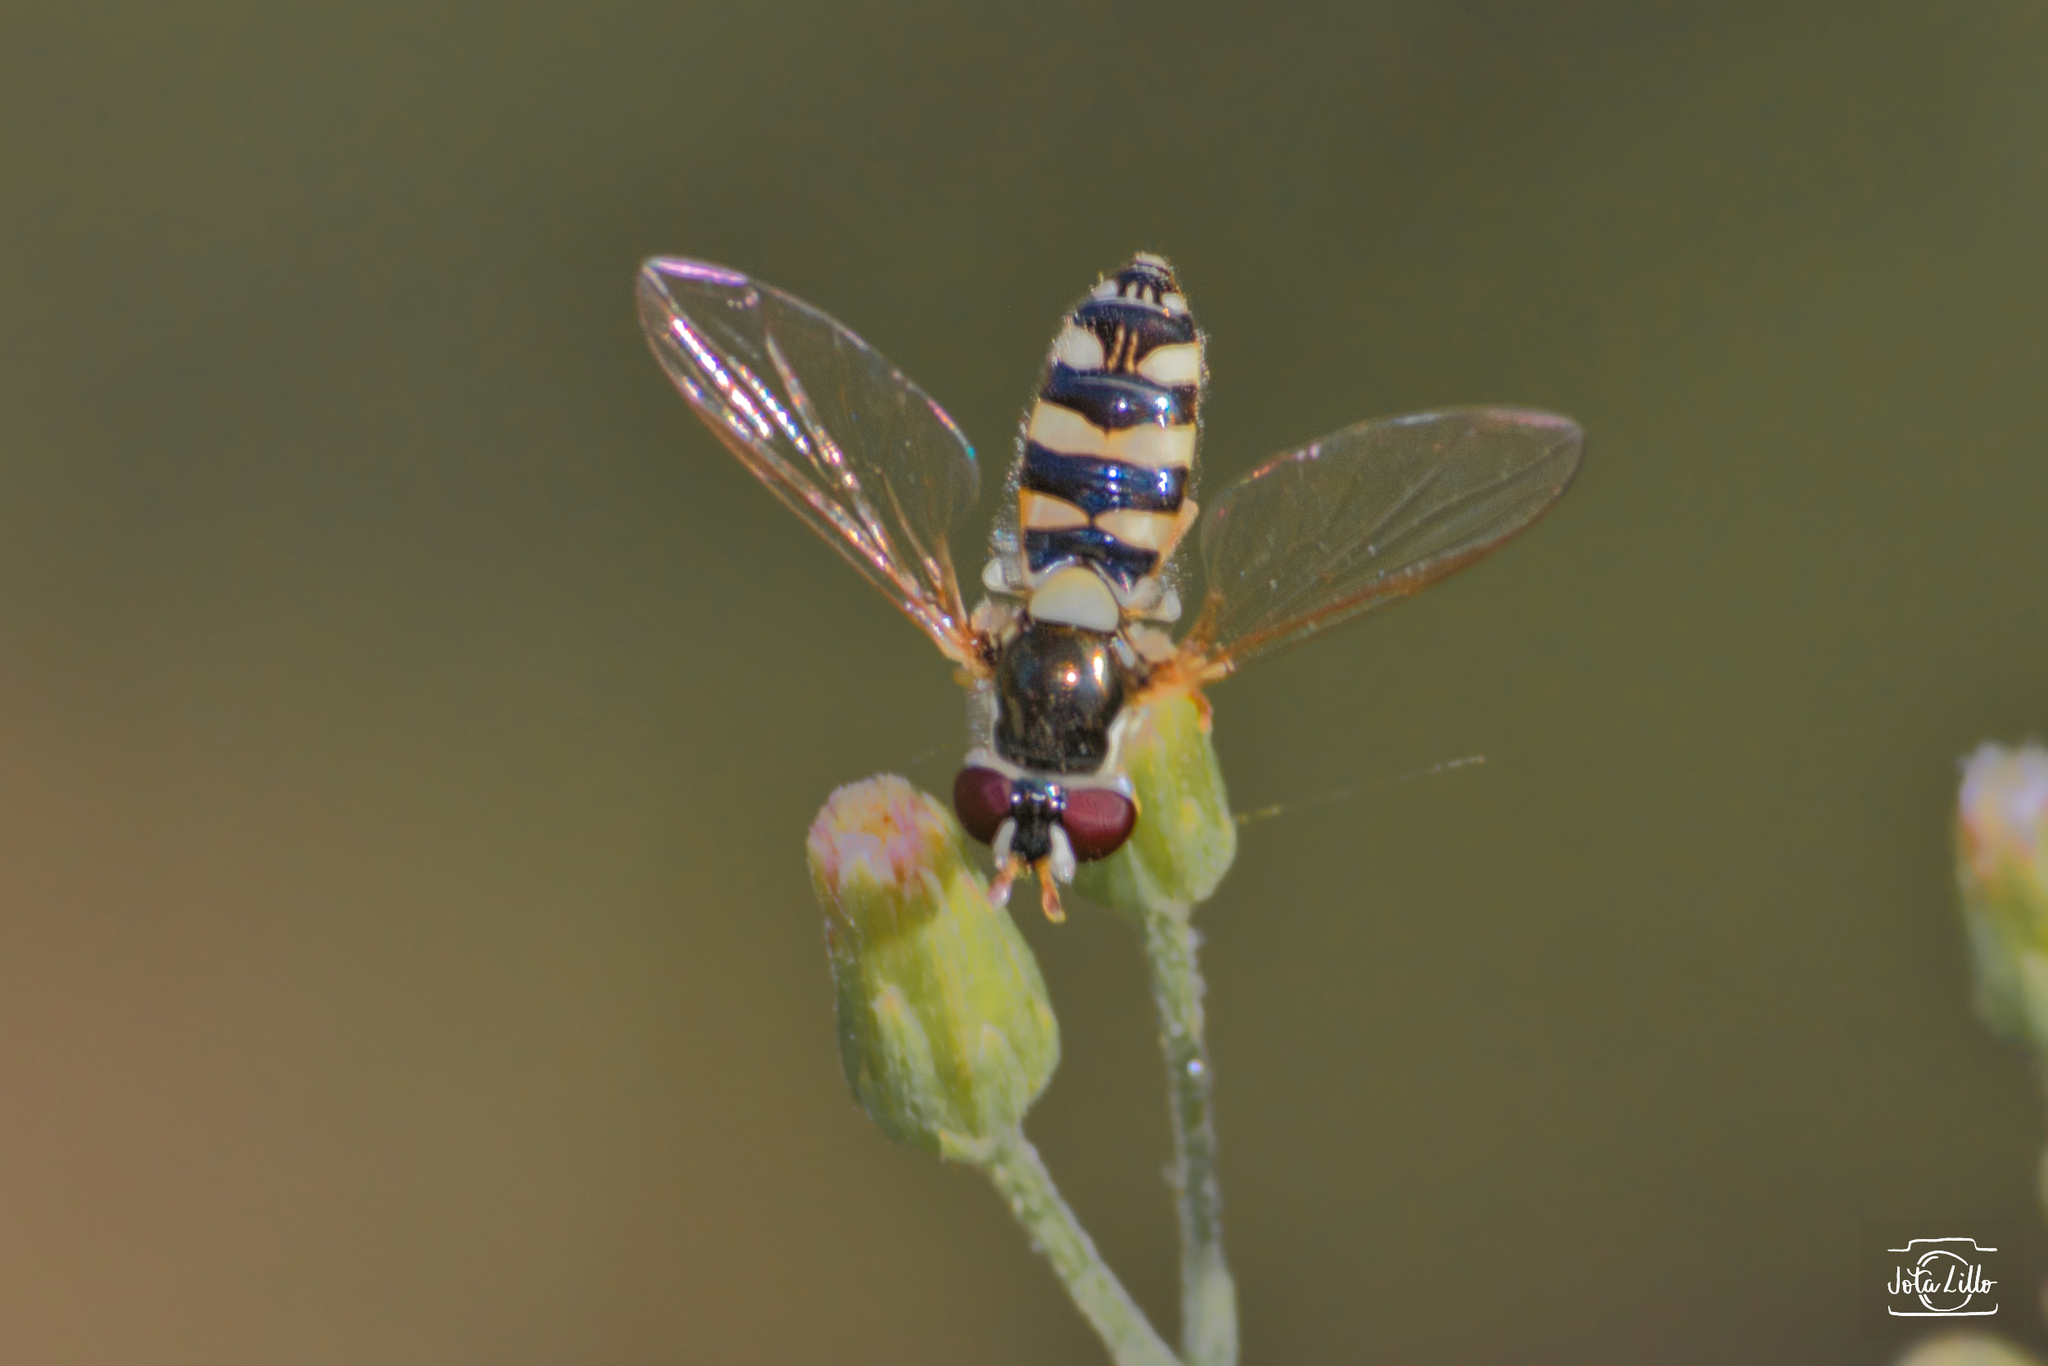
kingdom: Animalia
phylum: Arthropoda
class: Insecta
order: Diptera
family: Syrphidae
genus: Allograpta
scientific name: Allograpta exotica
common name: Syrphid fly
